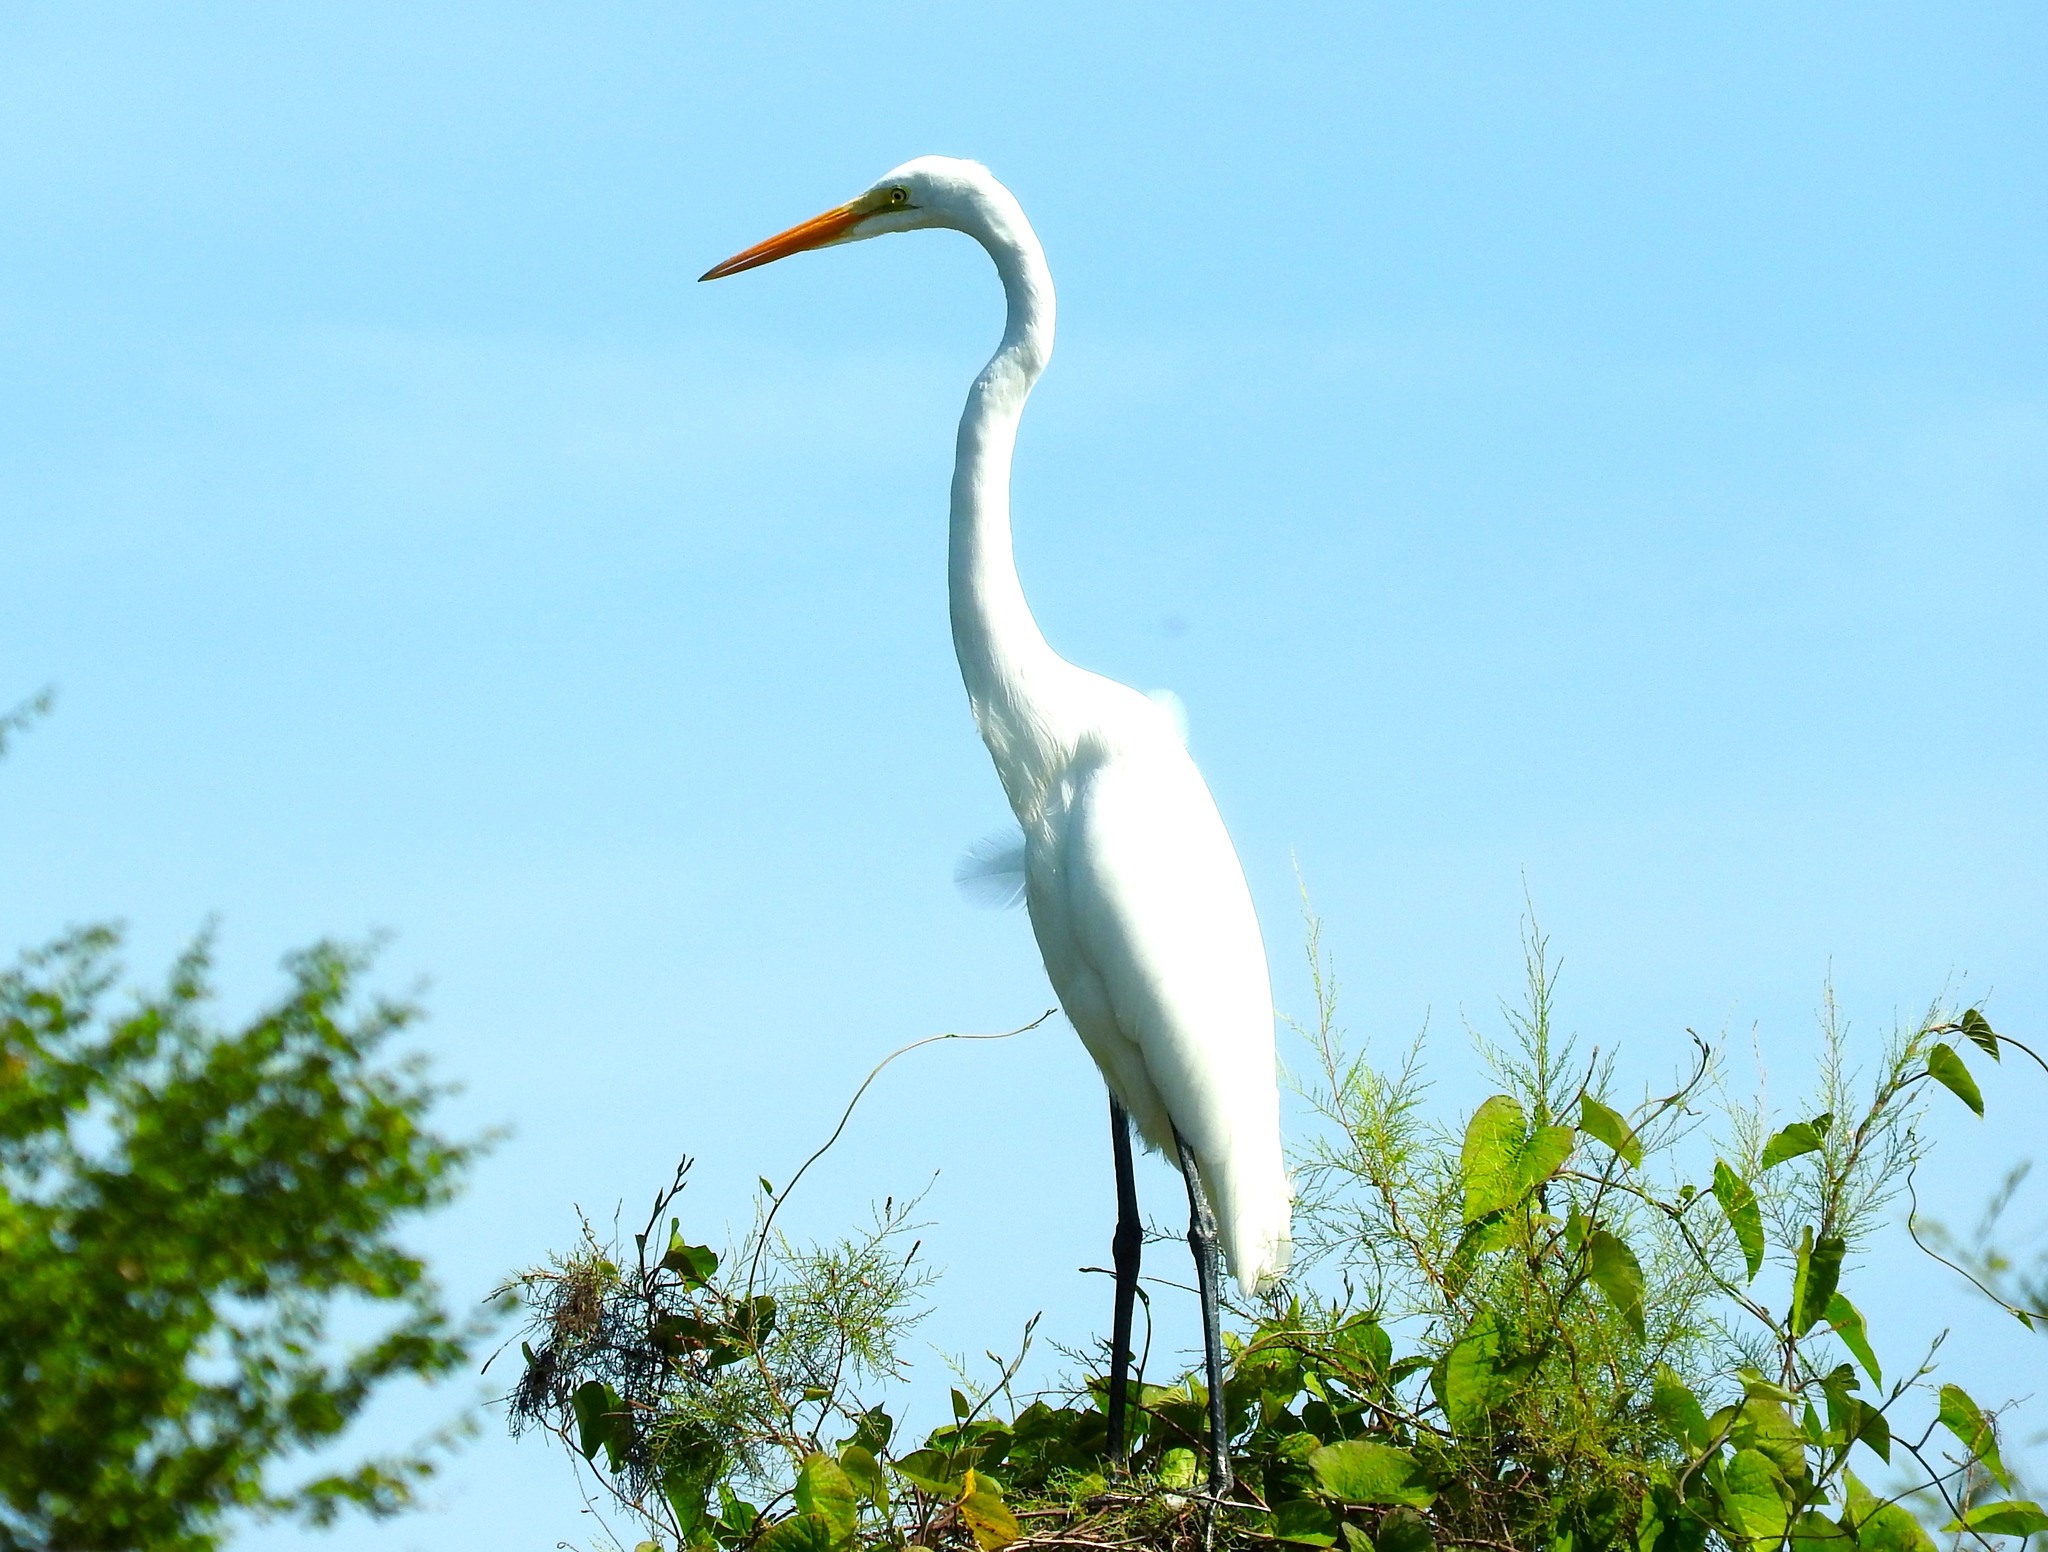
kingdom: Animalia
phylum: Chordata
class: Aves
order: Pelecaniformes
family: Ardeidae
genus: Ardea
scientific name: Ardea alba
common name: Great egret
